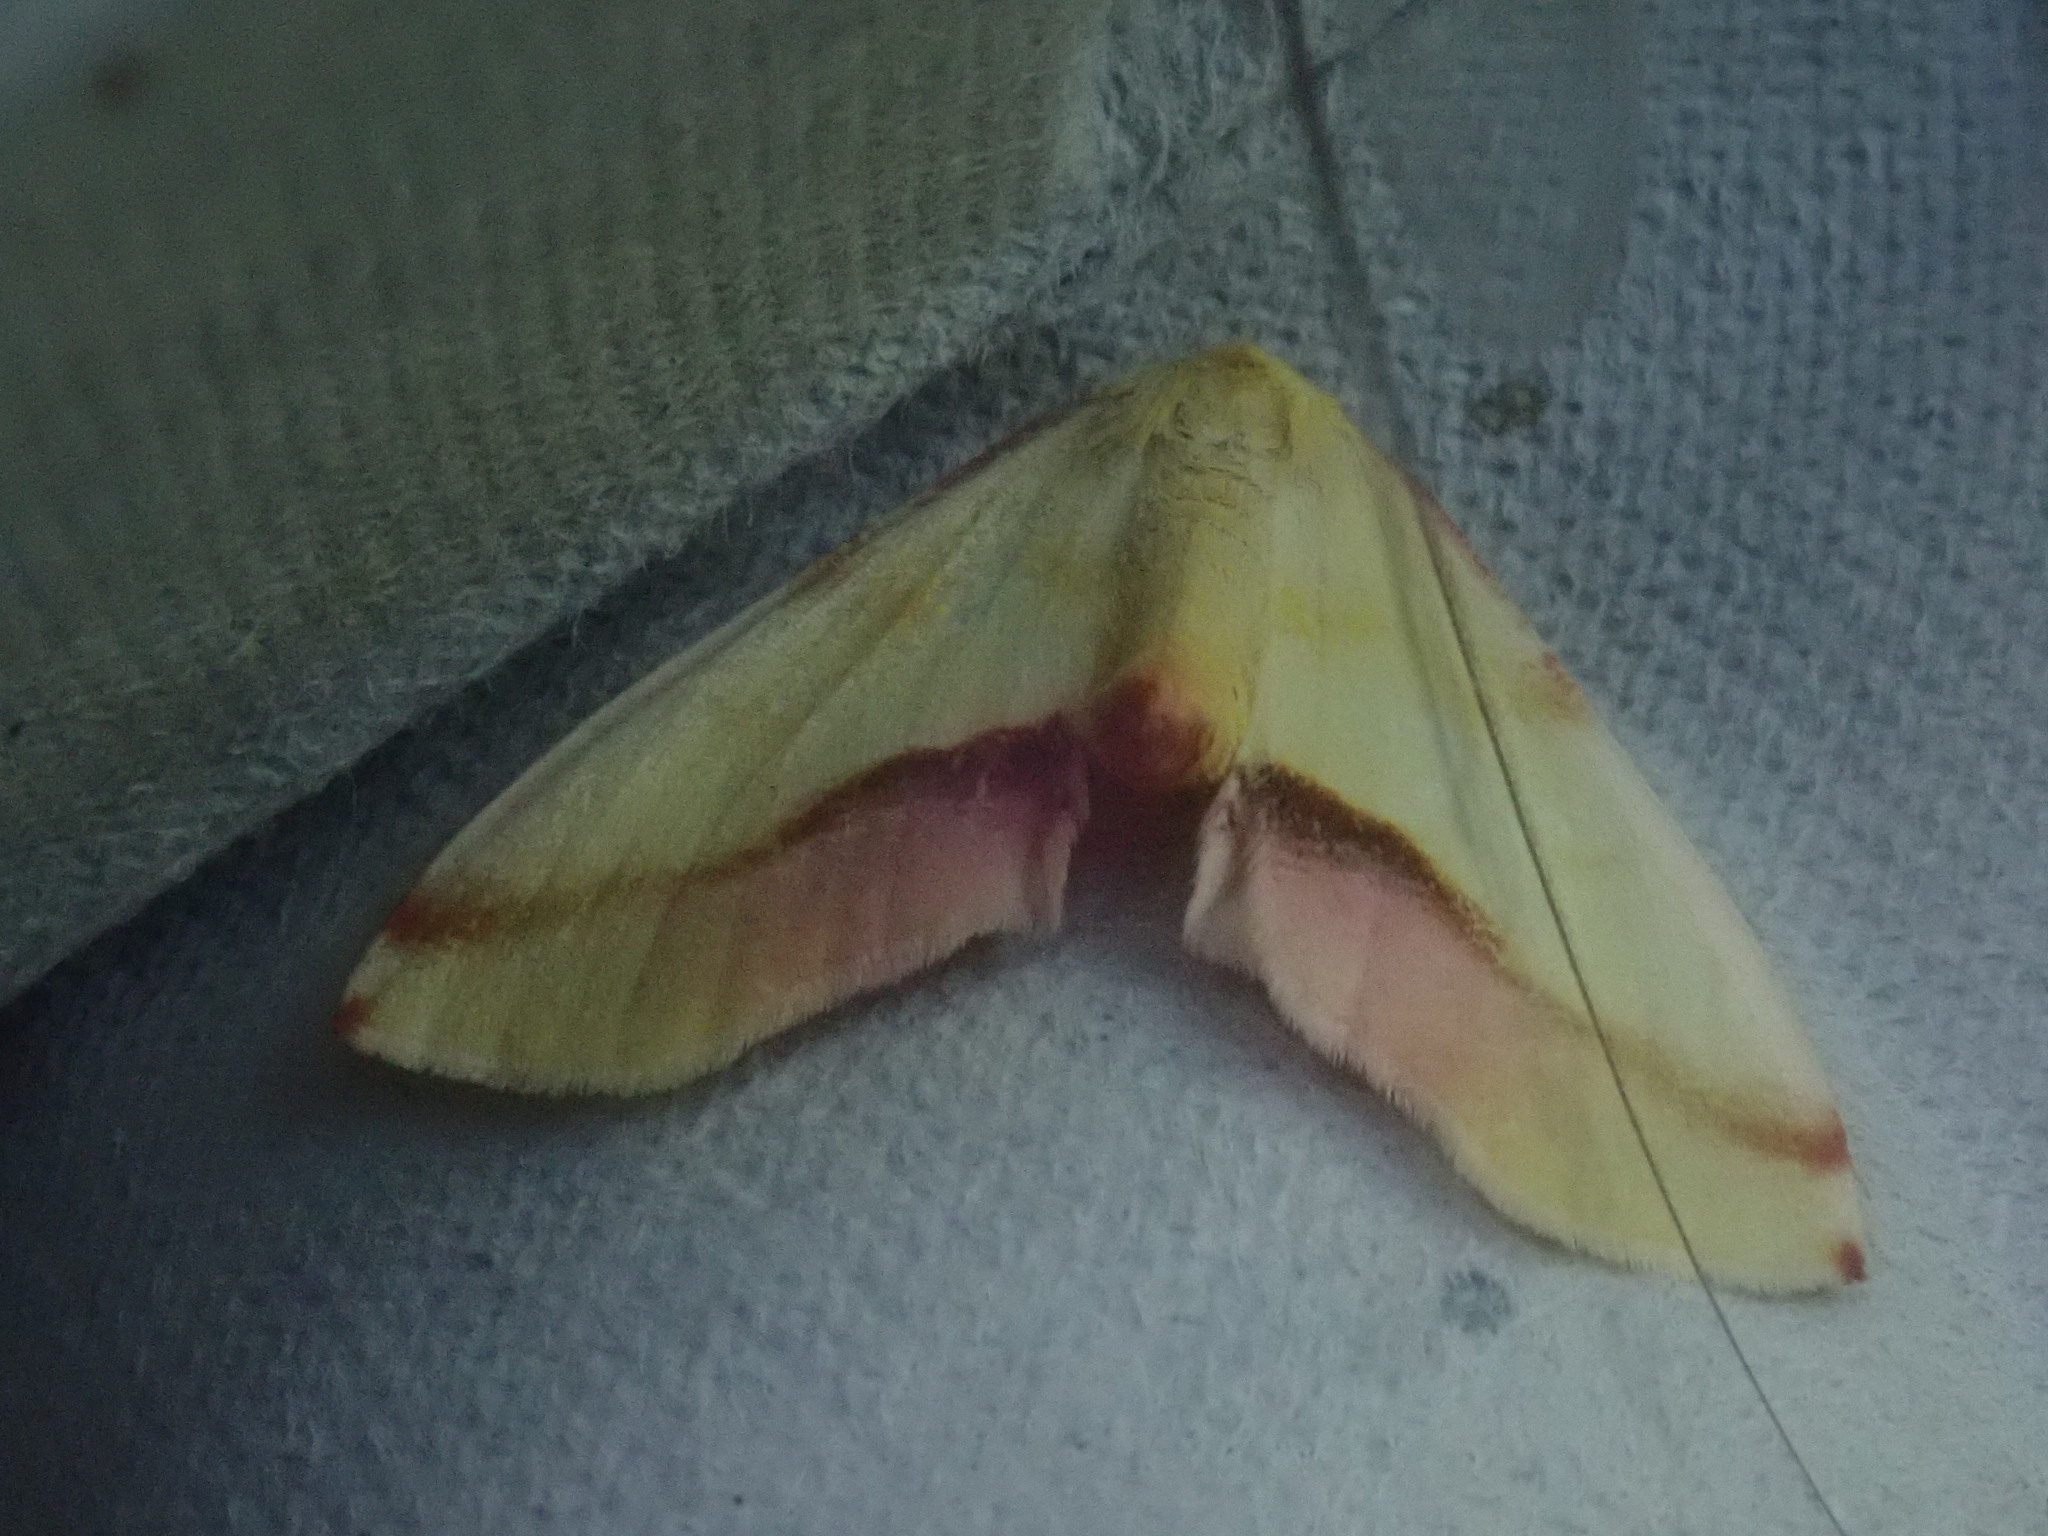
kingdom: Animalia
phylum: Arthropoda
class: Insecta
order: Lepidoptera
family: Geometridae
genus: Plagodis
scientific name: Plagodis serinaria
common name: Lemon plagodis
